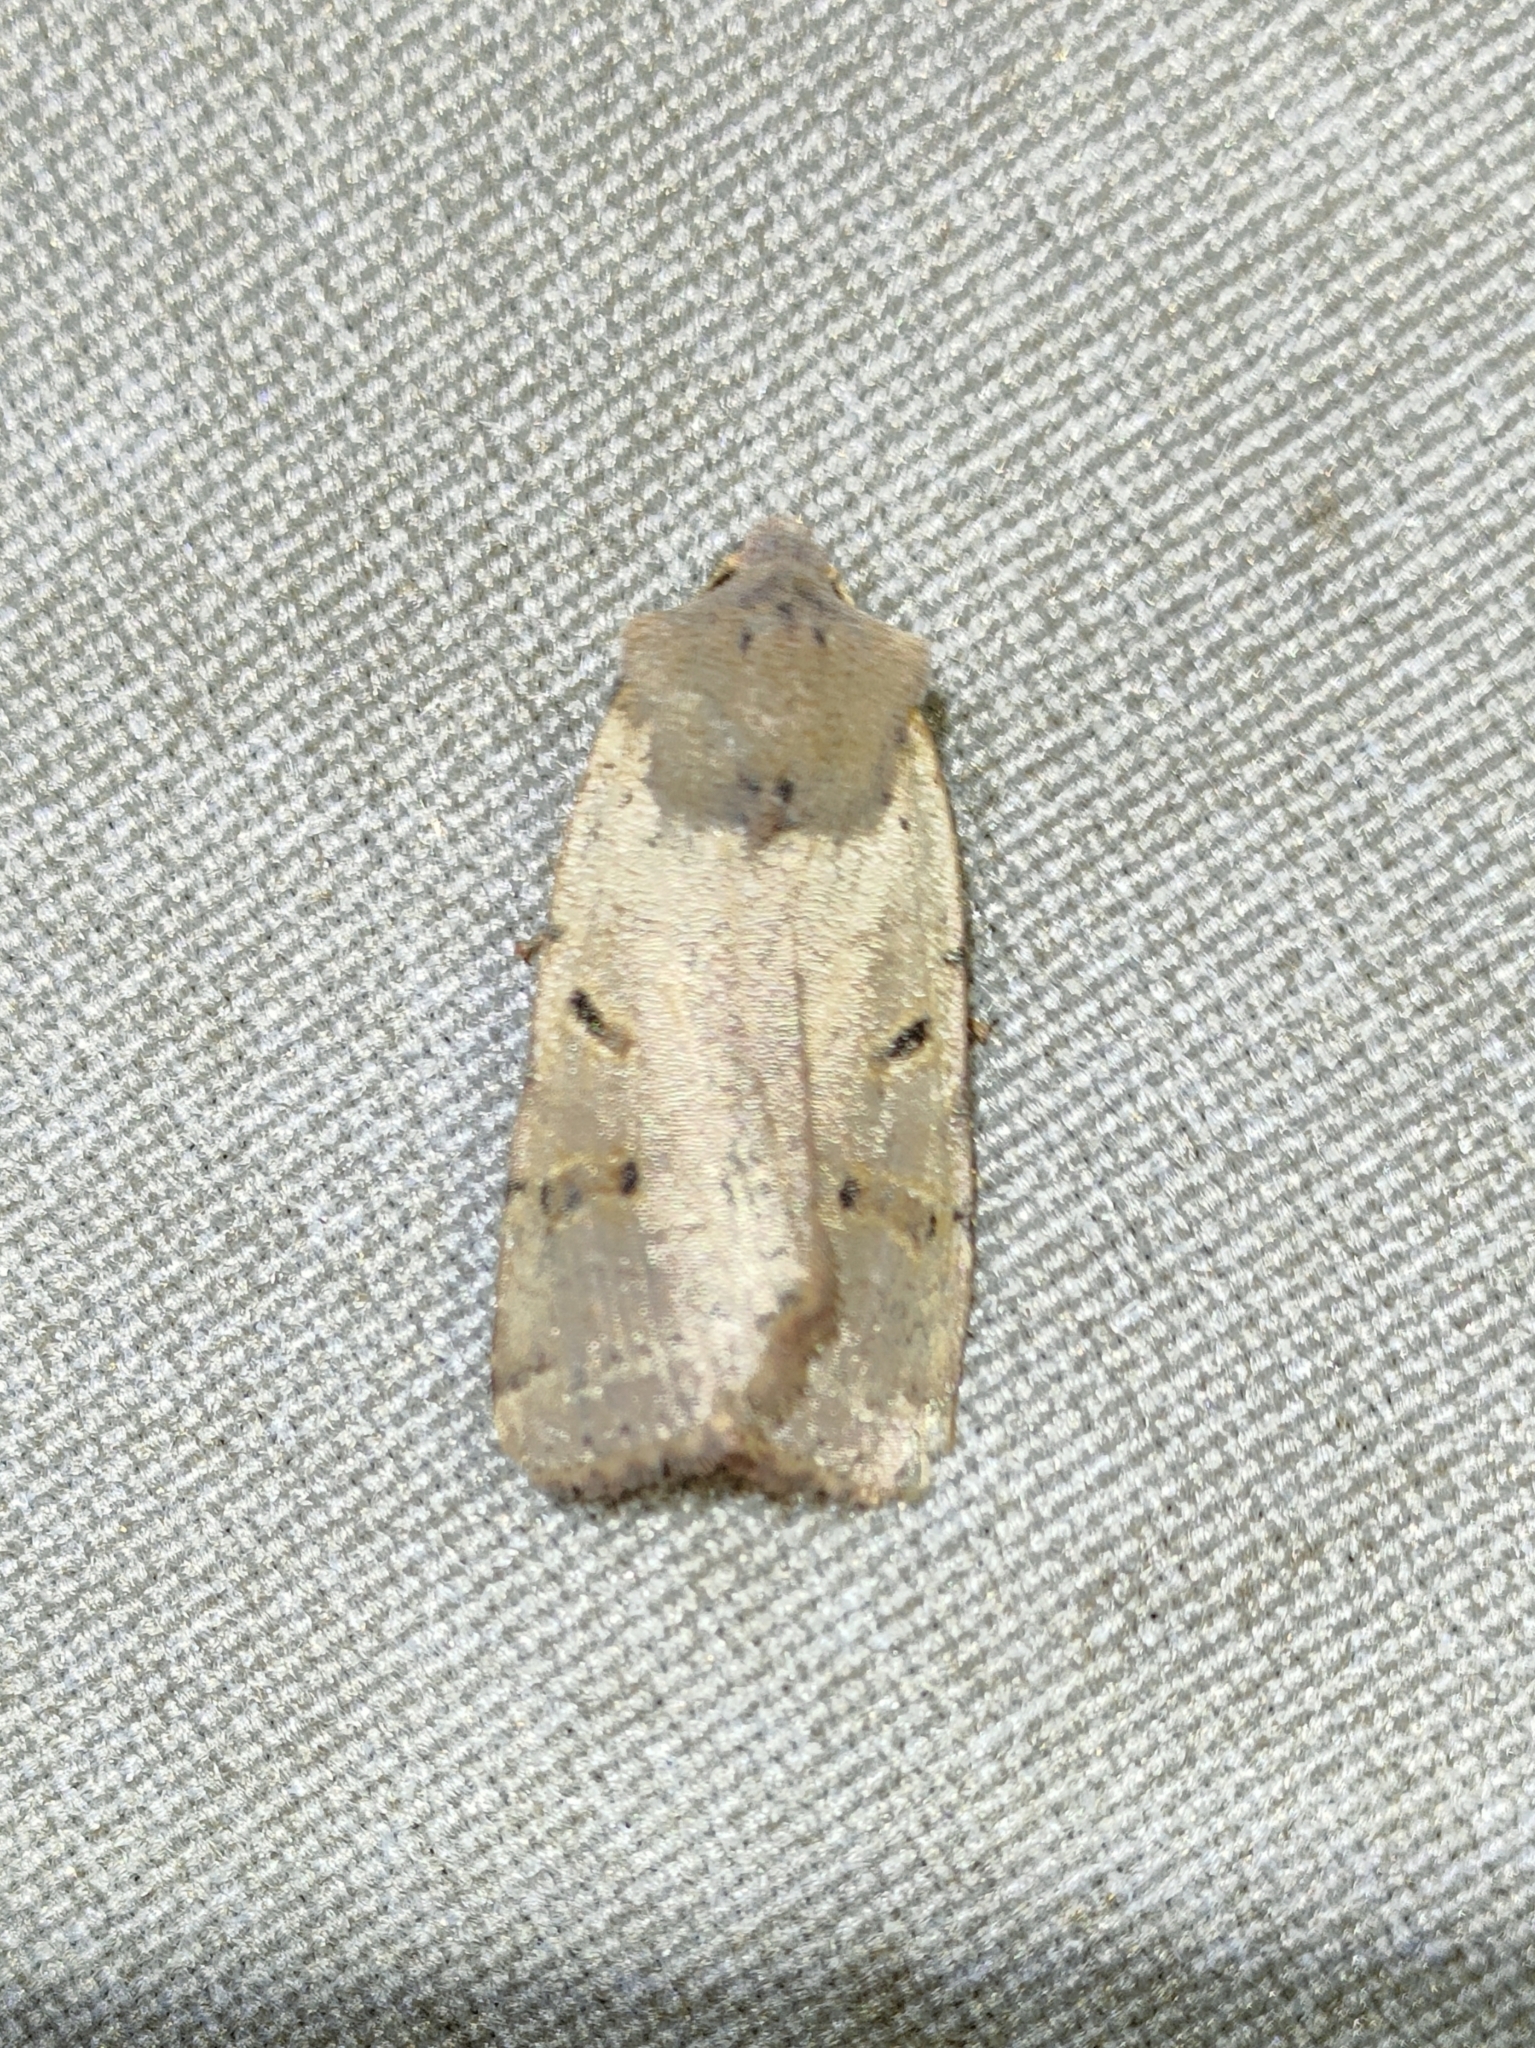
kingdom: Animalia
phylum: Arthropoda
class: Insecta
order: Lepidoptera
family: Noctuidae
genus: Agrochola
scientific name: Agrochola lychnidis
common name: Beaded chestnut
